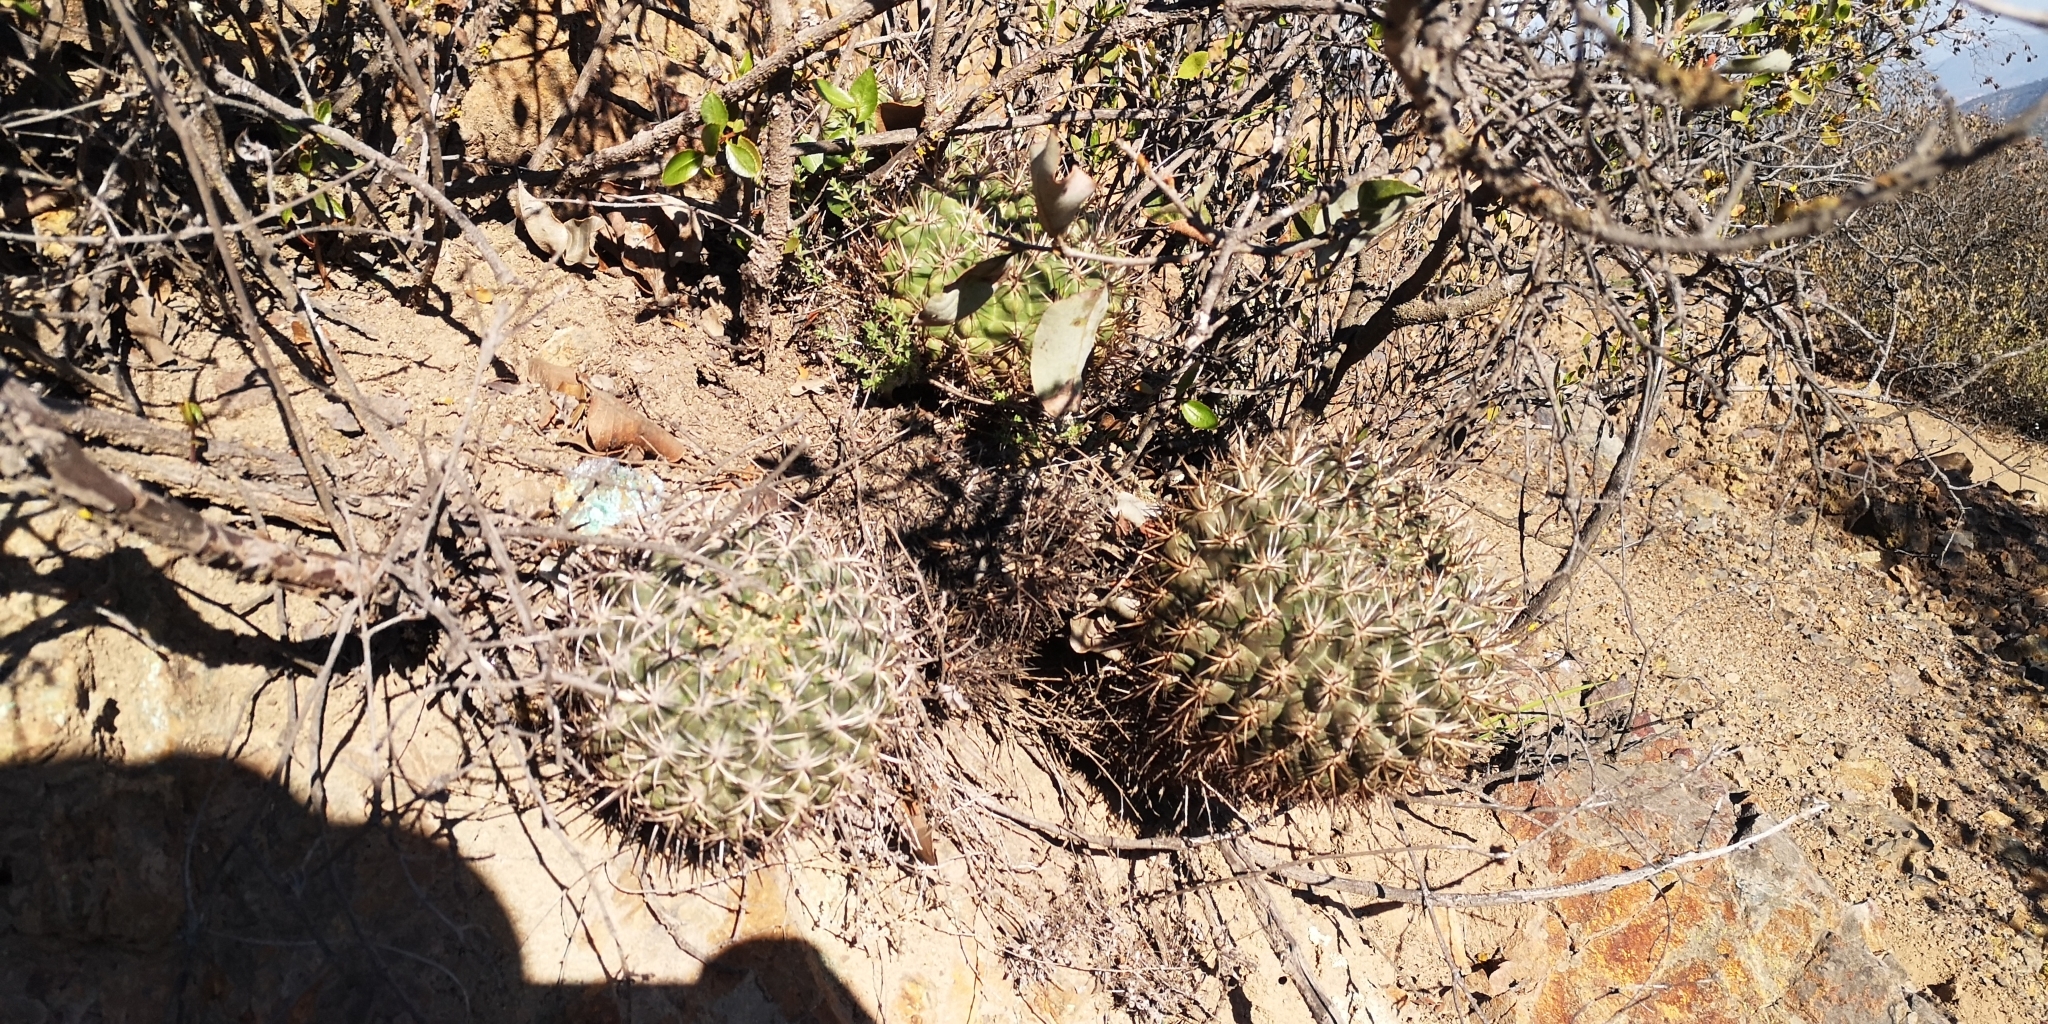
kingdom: Plantae
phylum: Tracheophyta
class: Magnoliopsida
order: Caryophyllales
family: Cactaceae
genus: Eriosyce
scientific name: Eriosyce curvispina
